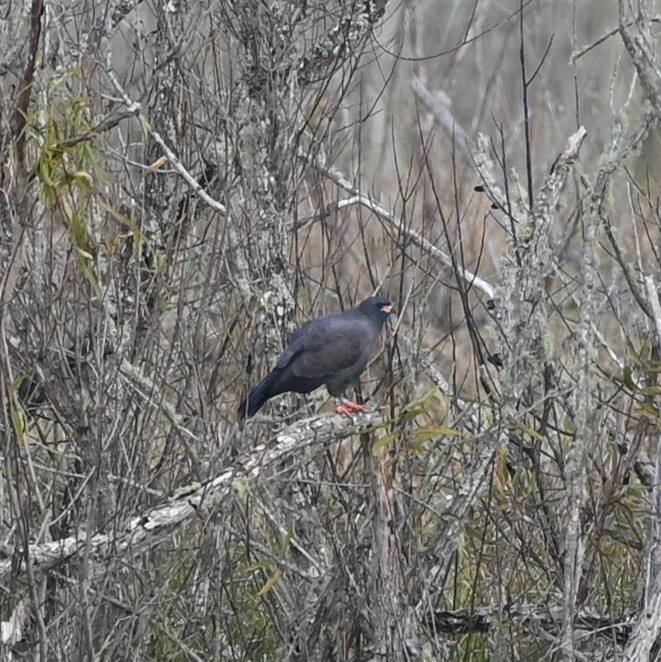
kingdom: Animalia
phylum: Chordata
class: Aves
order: Accipitriformes
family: Accipitridae
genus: Rostrhamus
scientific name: Rostrhamus sociabilis
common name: Snail kite
